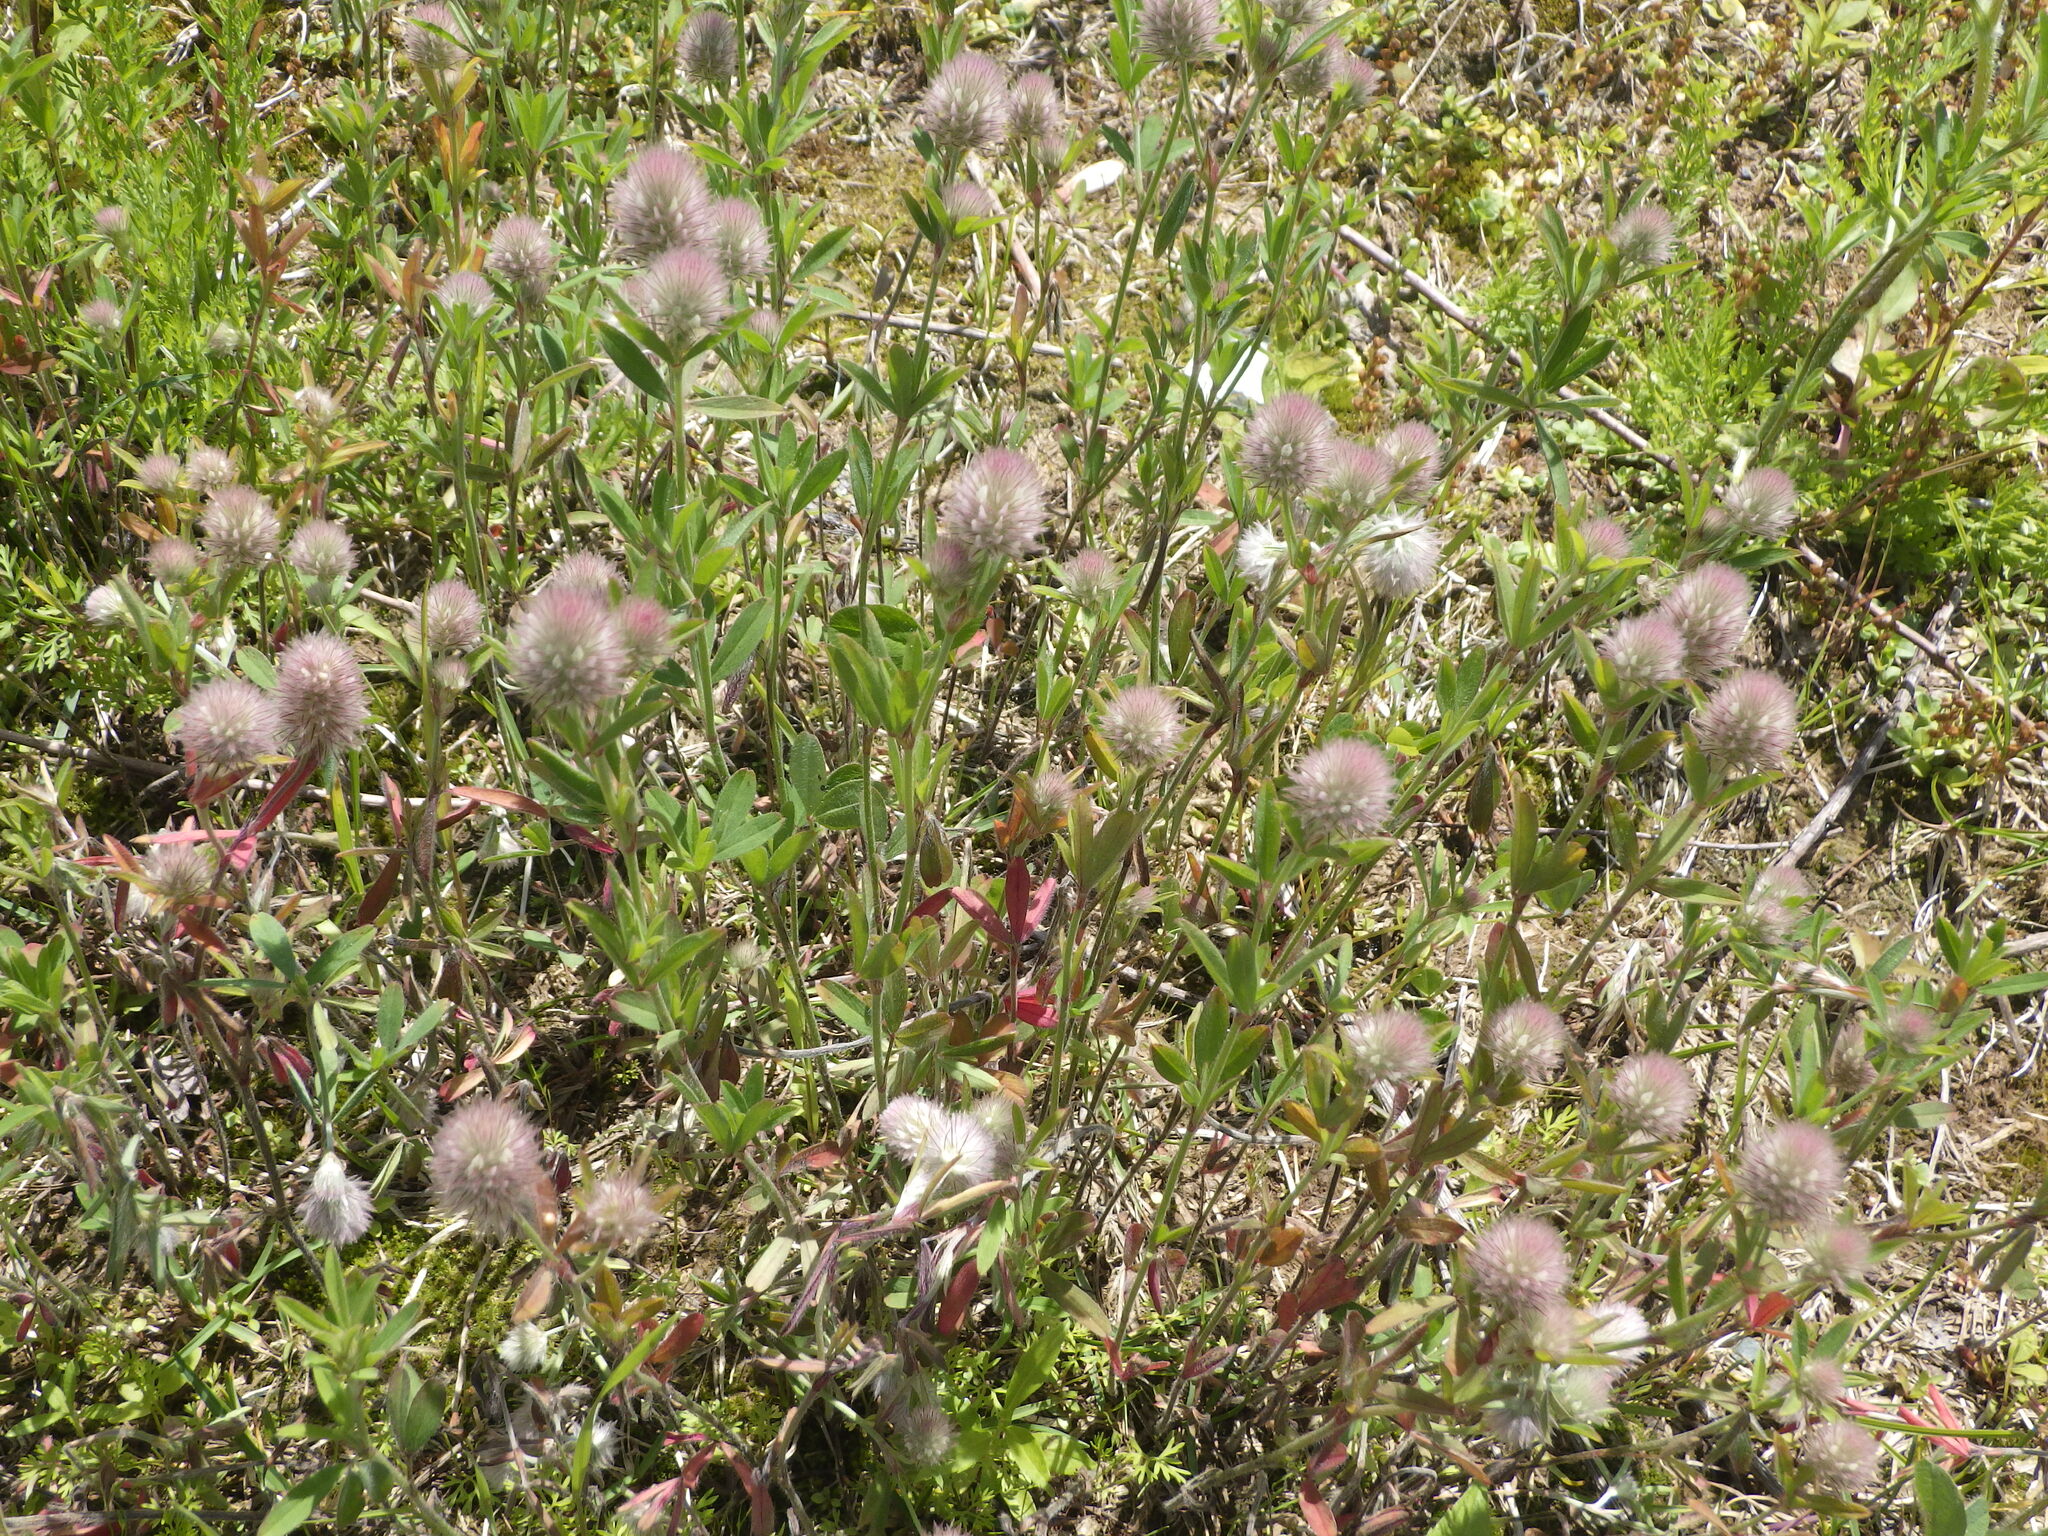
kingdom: Plantae
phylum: Tracheophyta
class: Magnoliopsida
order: Fabales
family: Fabaceae
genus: Trifolium
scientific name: Trifolium arvense
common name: Hare's-foot clover
